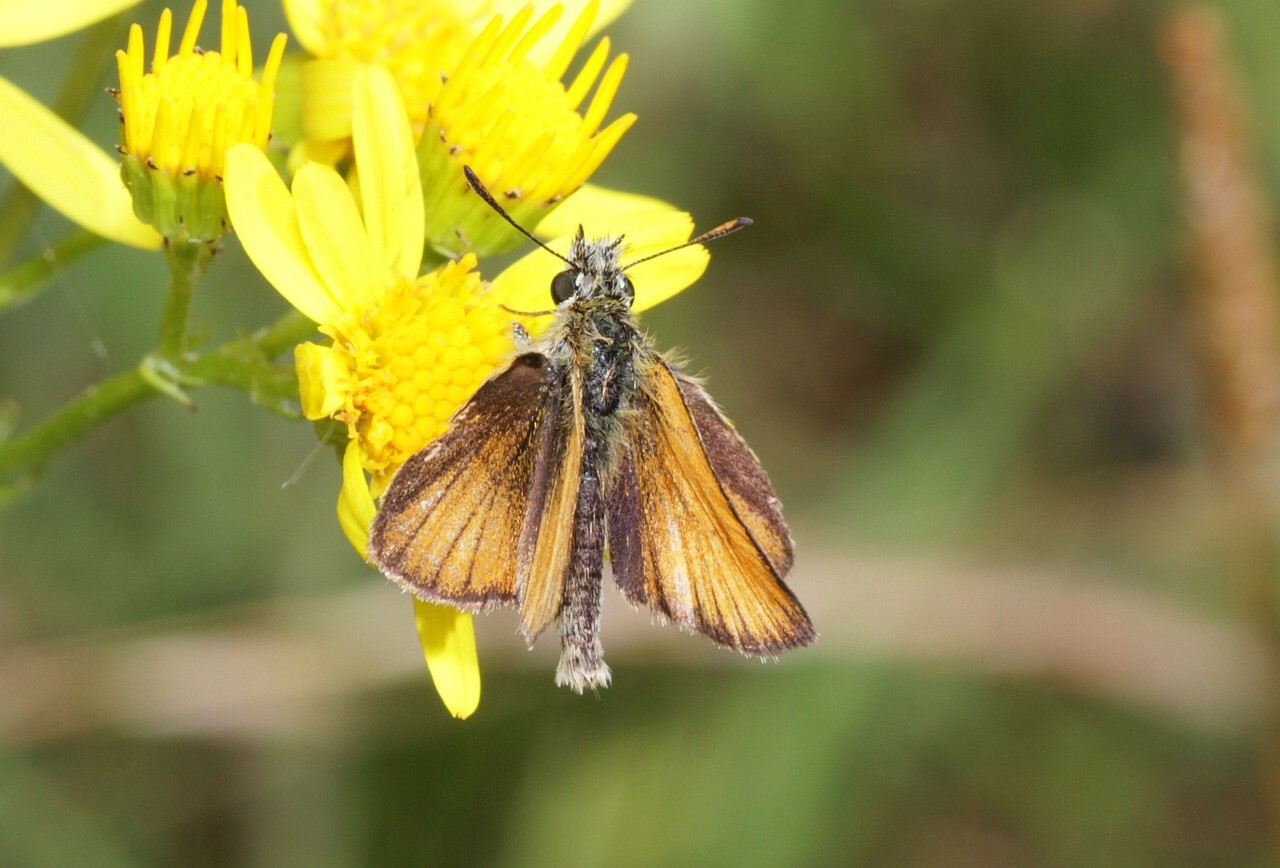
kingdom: Animalia
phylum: Arthropoda
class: Insecta
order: Lepidoptera
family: Hesperiidae
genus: Thymelicus
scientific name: Thymelicus lineola
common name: Essex skipper
